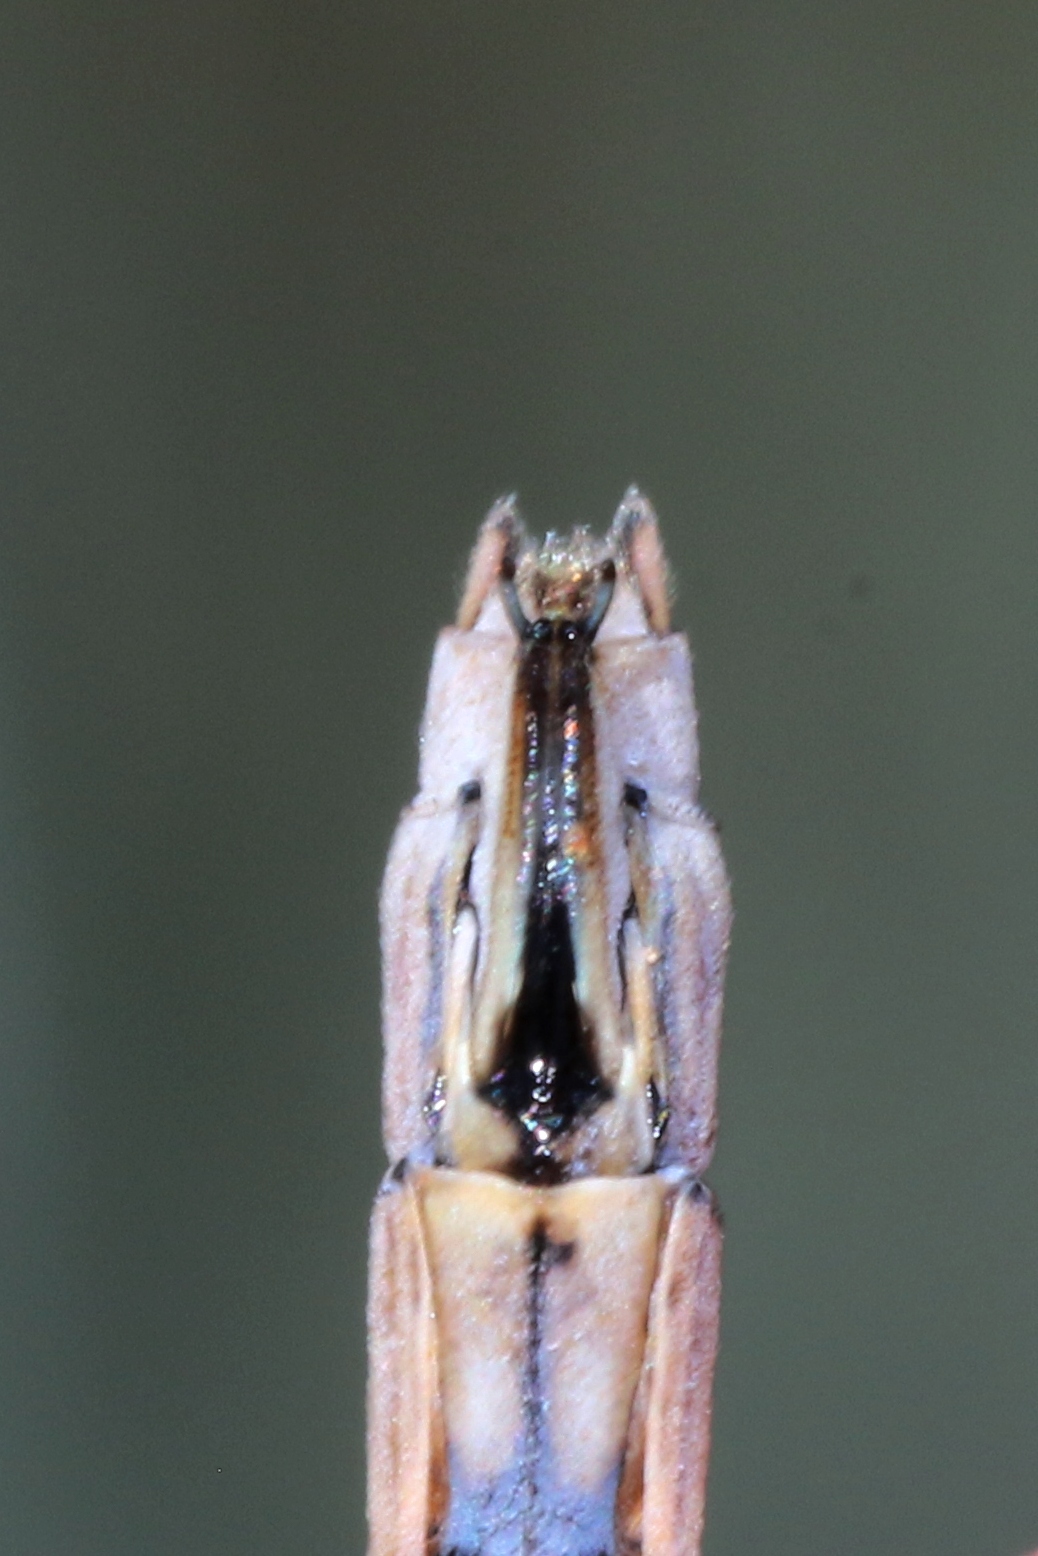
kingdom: Animalia
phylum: Arthropoda
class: Insecta
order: Odonata
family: Lestidae
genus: Lestes
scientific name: Lestes disjunctus
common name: Northern spreadwing
